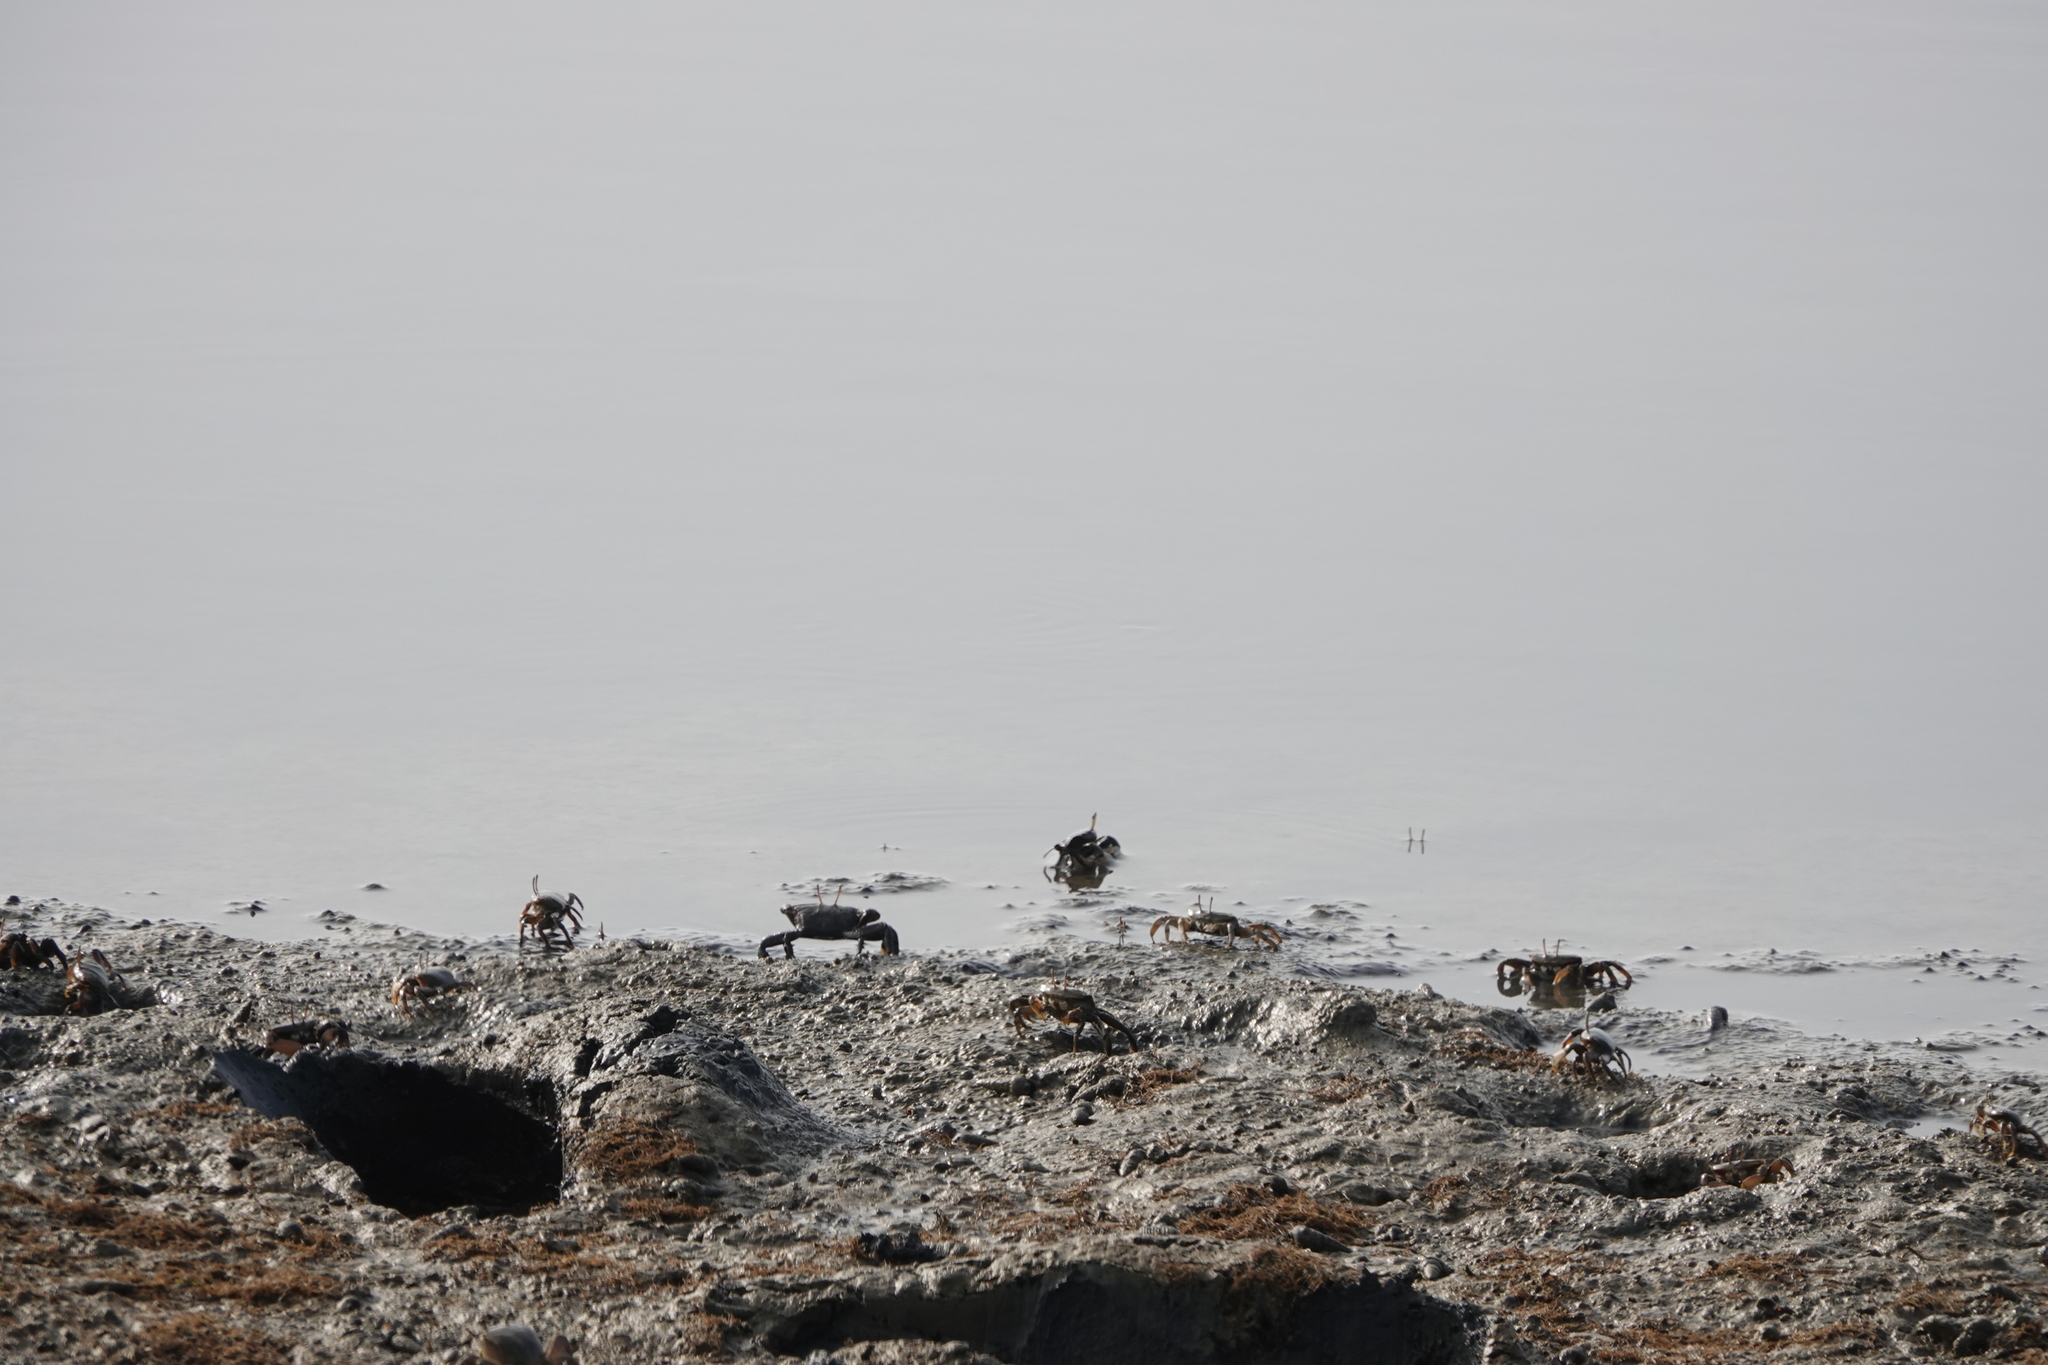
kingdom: Animalia
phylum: Arthropoda
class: Malacostraca
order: Decapoda
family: Macrophthalmidae
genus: Macrophthalmus
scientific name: Macrophthalmus banzai
